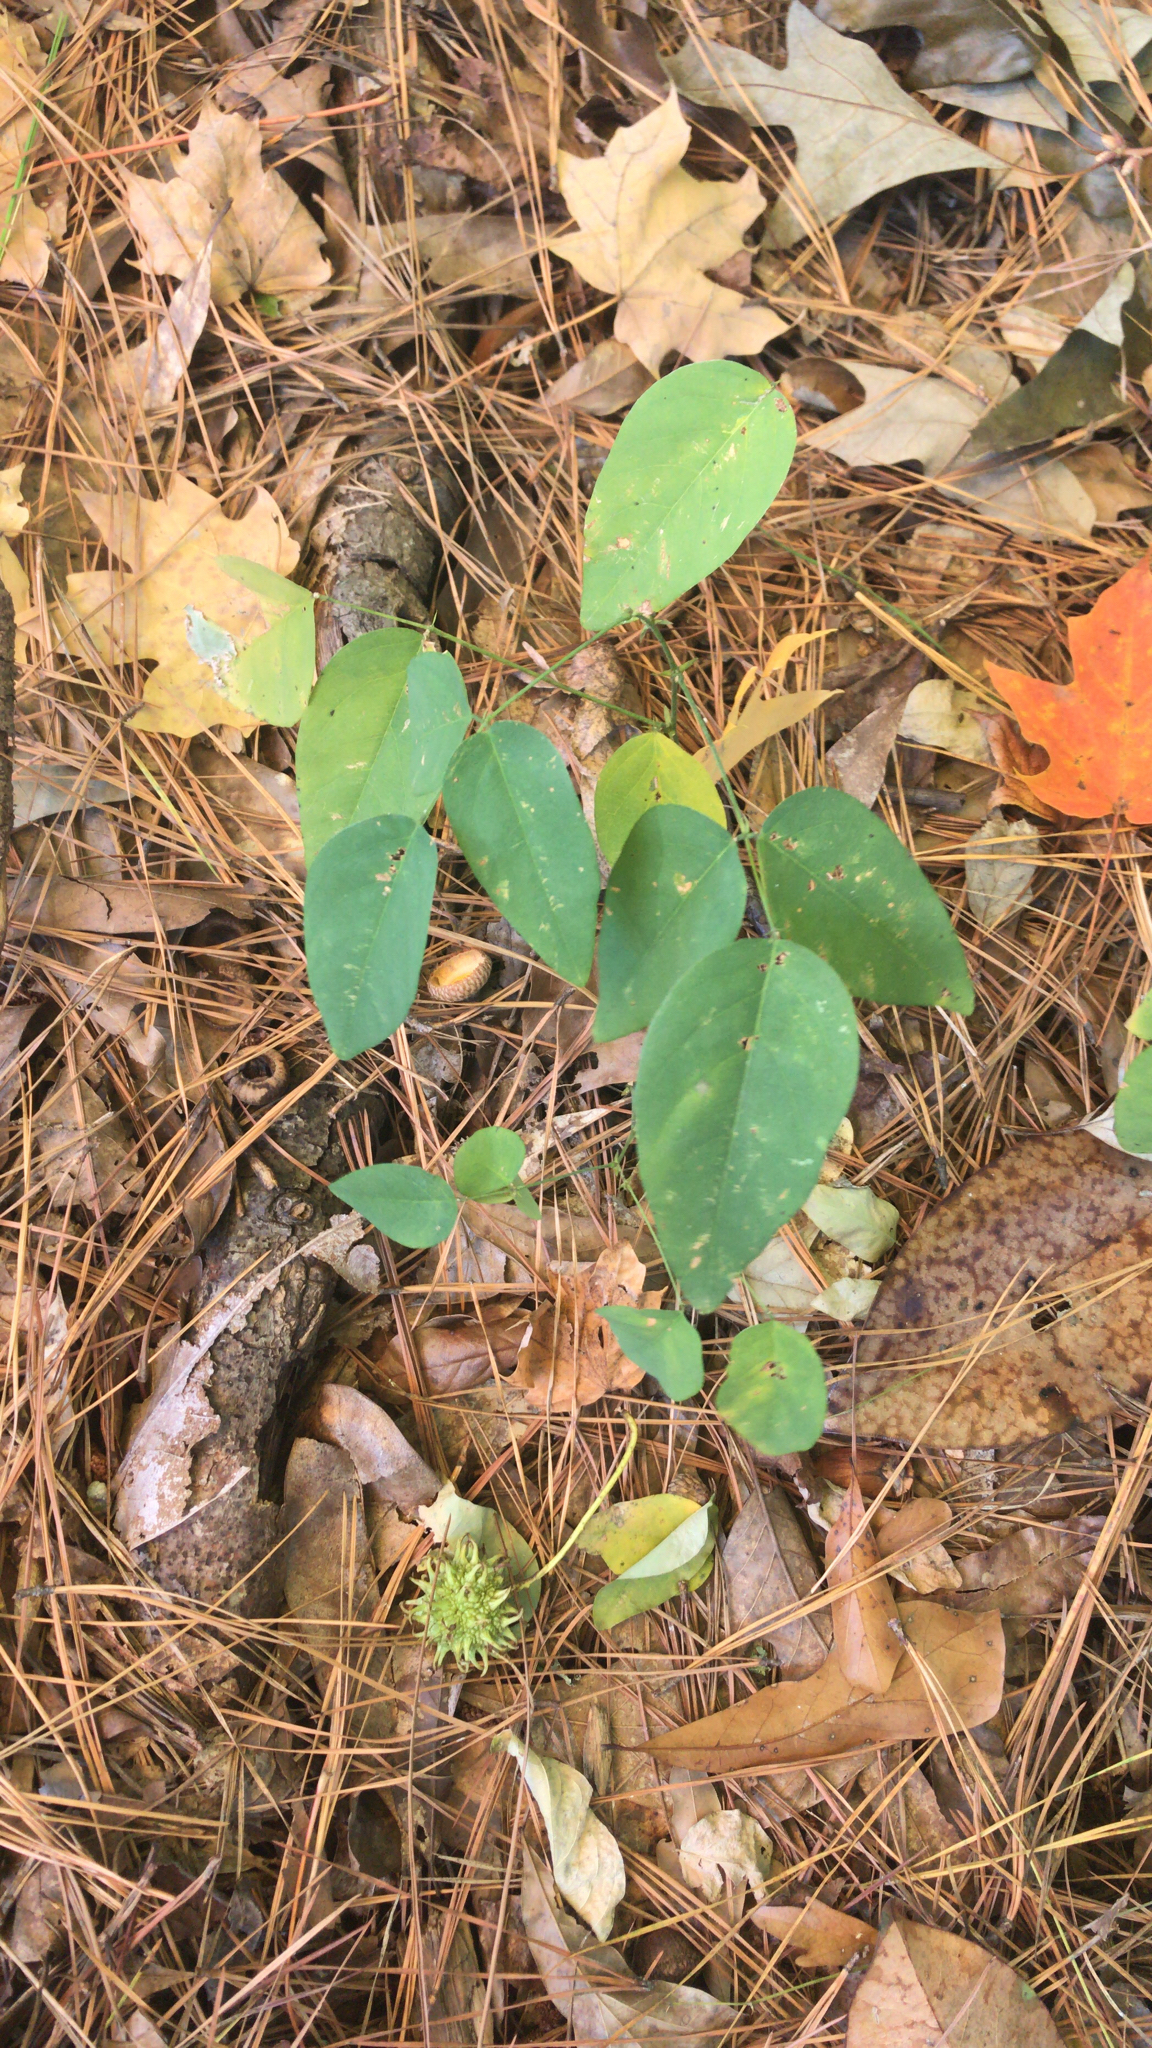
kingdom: Plantae
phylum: Tracheophyta
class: Magnoliopsida
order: Fabales
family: Fabaceae
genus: Clitoria
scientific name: Clitoria mariana
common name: Butterfly-pea
